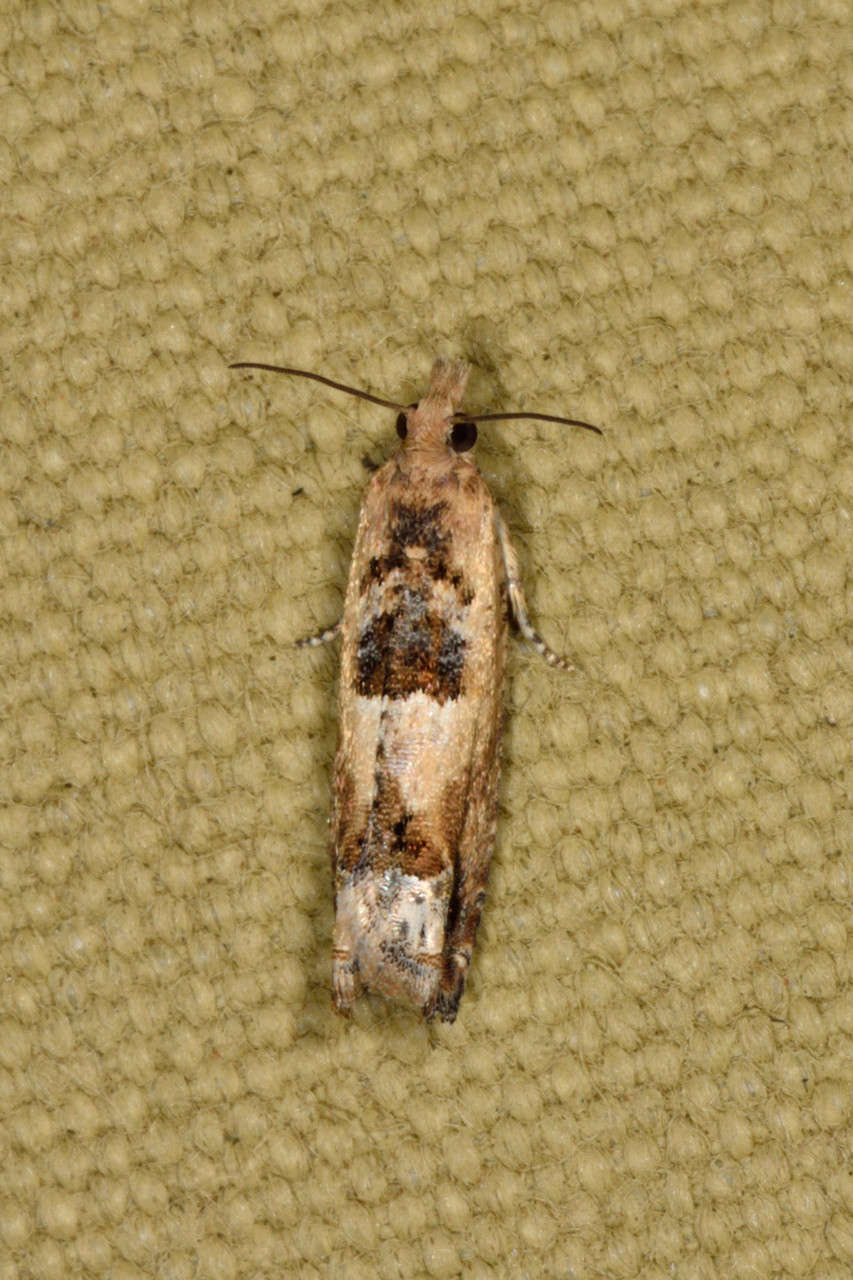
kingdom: Animalia
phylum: Arthropoda
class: Insecta
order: Lepidoptera
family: Tortricidae
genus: Crocidosema
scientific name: Crocidosema plebejana
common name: Southern bell
